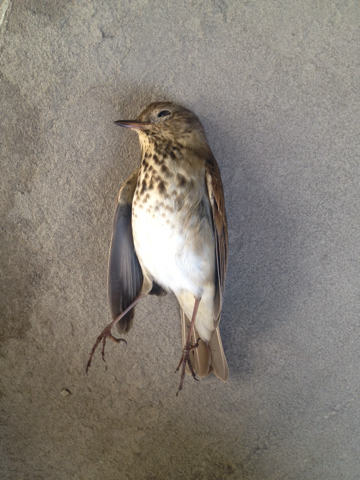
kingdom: Animalia
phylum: Chordata
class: Aves
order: Passeriformes
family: Turdidae
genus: Catharus
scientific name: Catharus guttatus
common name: Hermit thrush
